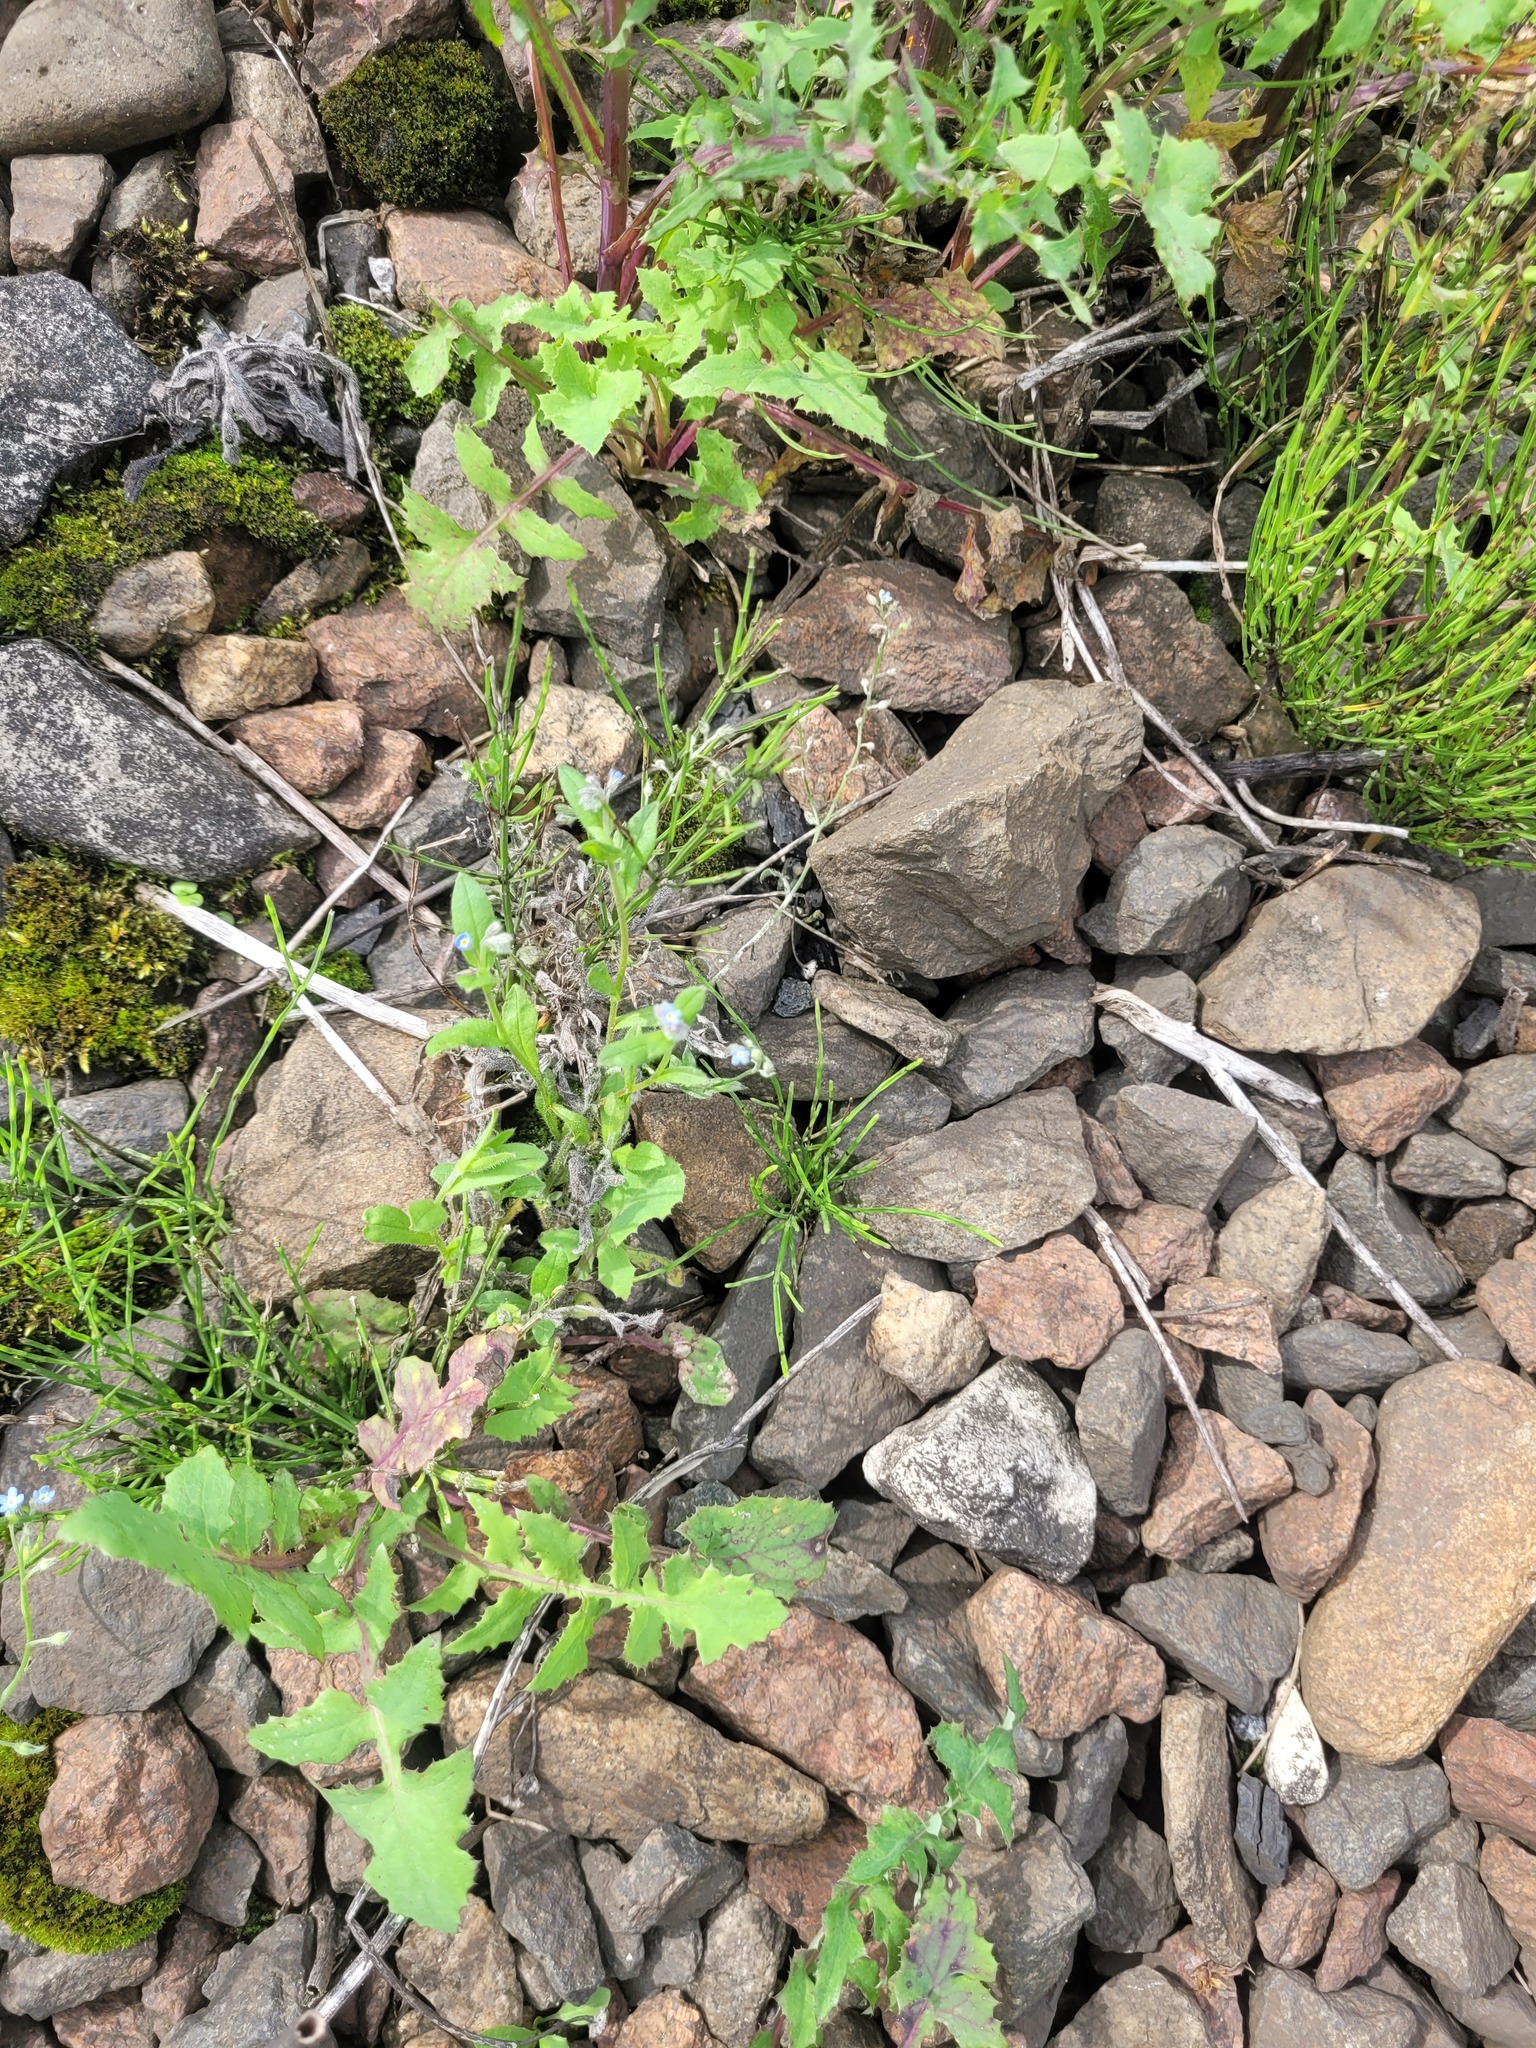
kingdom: Plantae
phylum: Tracheophyta
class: Magnoliopsida
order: Boraginales
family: Boraginaceae
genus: Myosotis
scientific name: Myosotis arvensis
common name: Field forget-me-not
